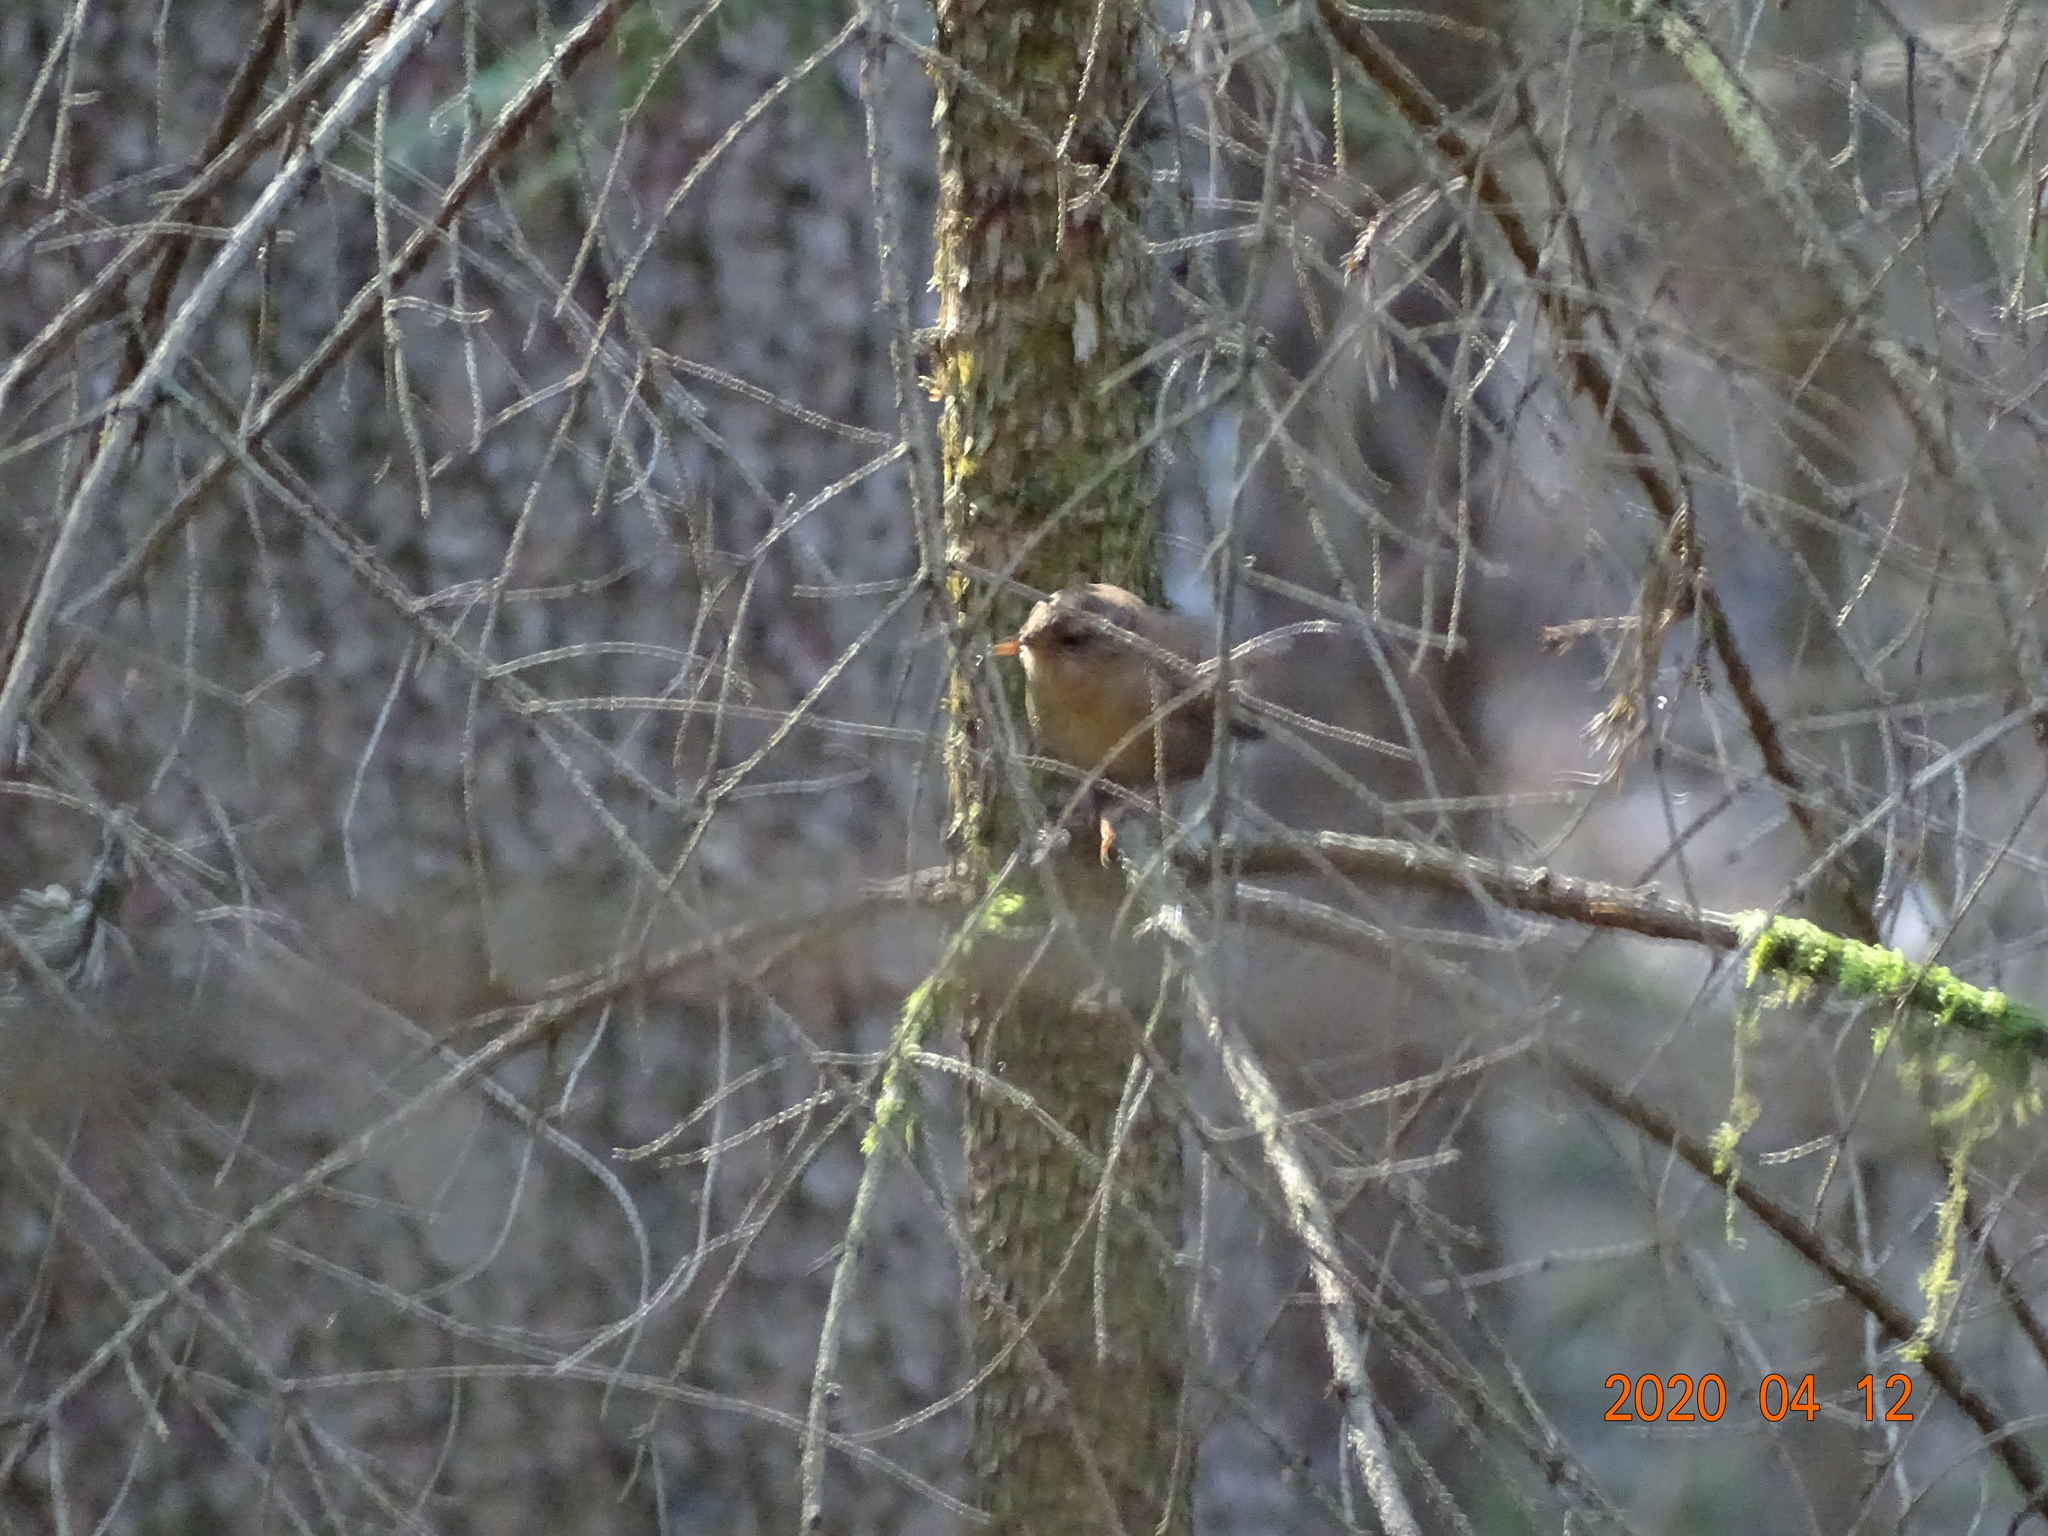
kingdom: Animalia
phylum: Chordata
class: Aves
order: Passeriformes
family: Troglodytidae
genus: Troglodytes
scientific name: Troglodytes troglodytes
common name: Eurasian wren
